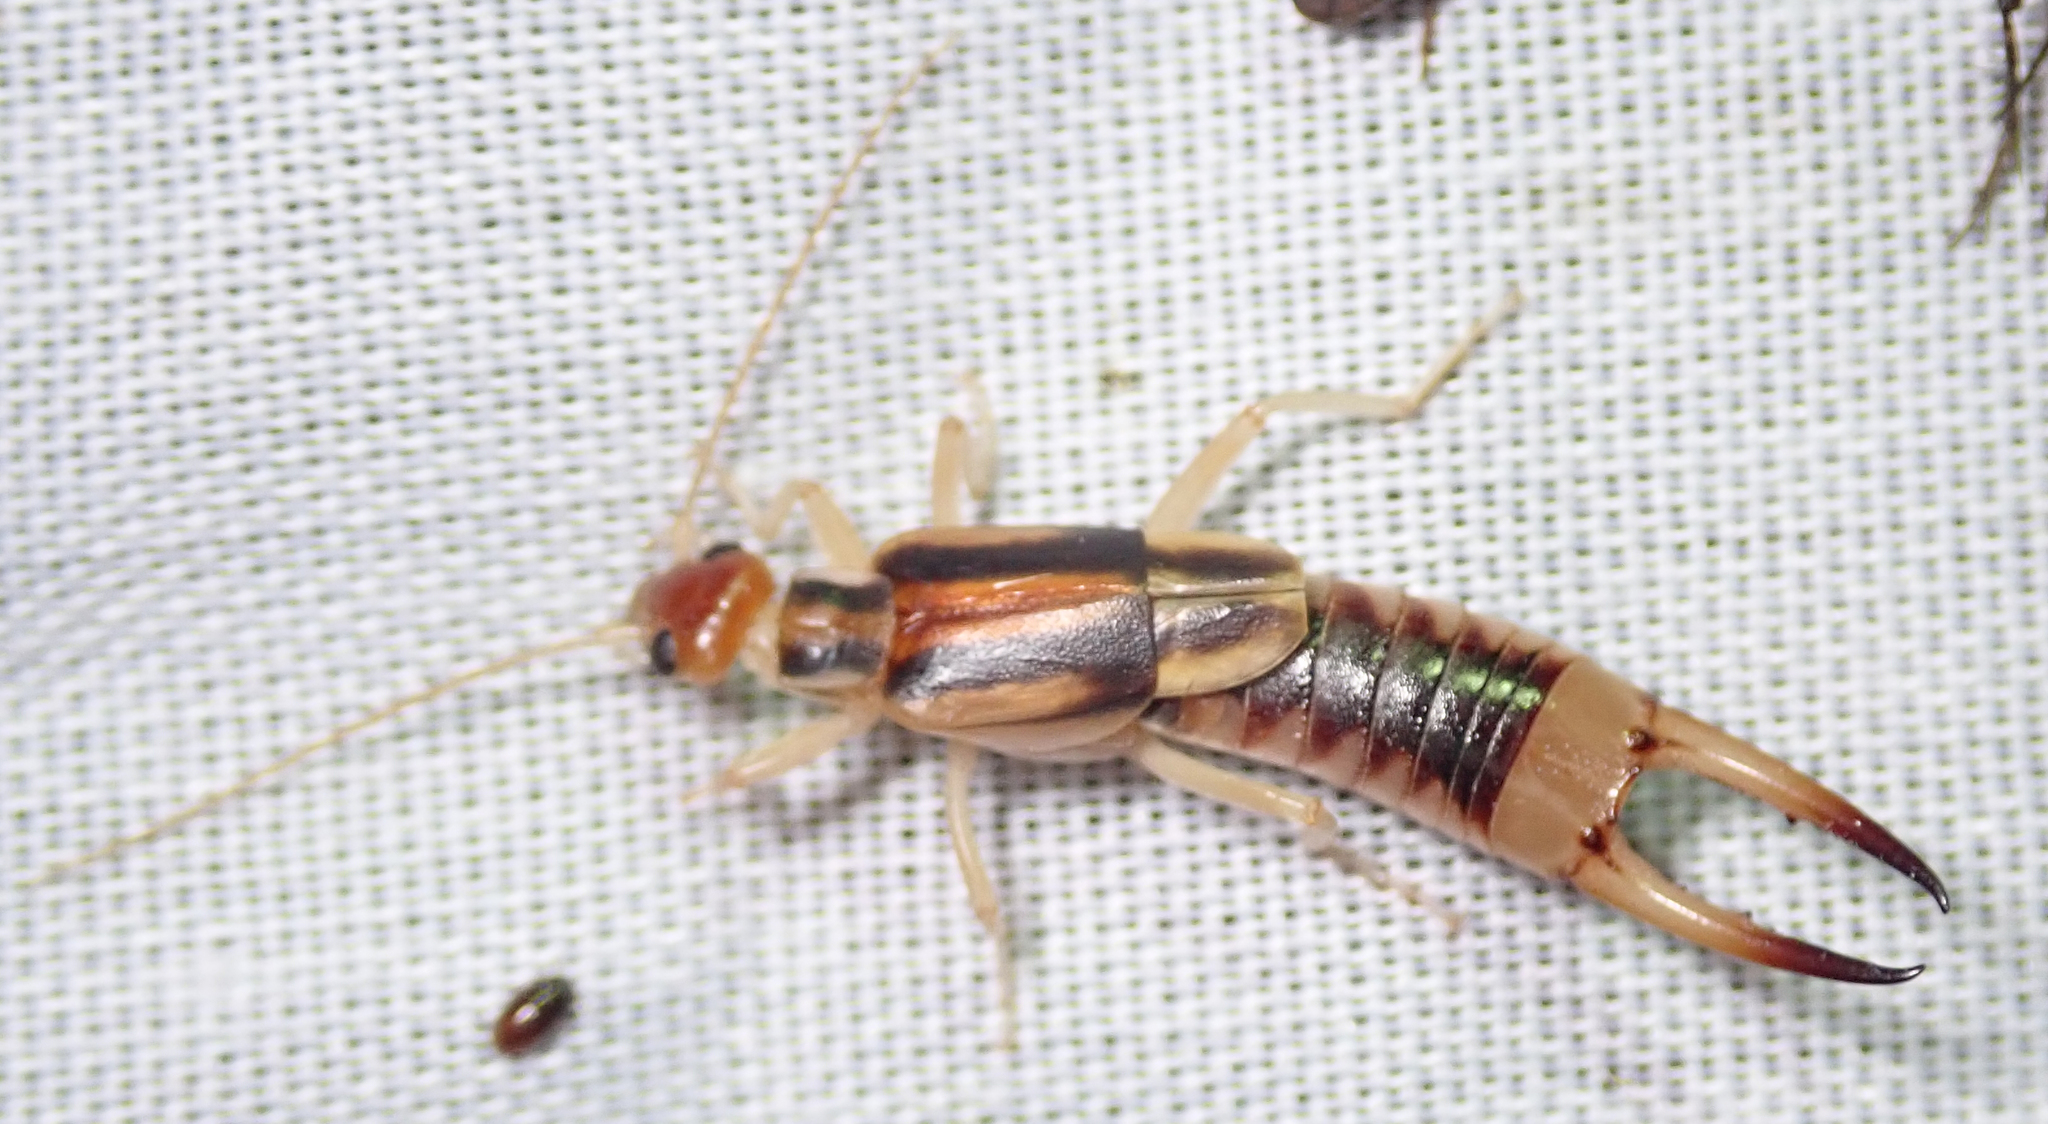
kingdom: Animalia
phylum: Arthropoda
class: Insecta
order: Dermaptera
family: Labiduridae
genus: Labidura
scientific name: Labidura riparia
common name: Striped earwig
